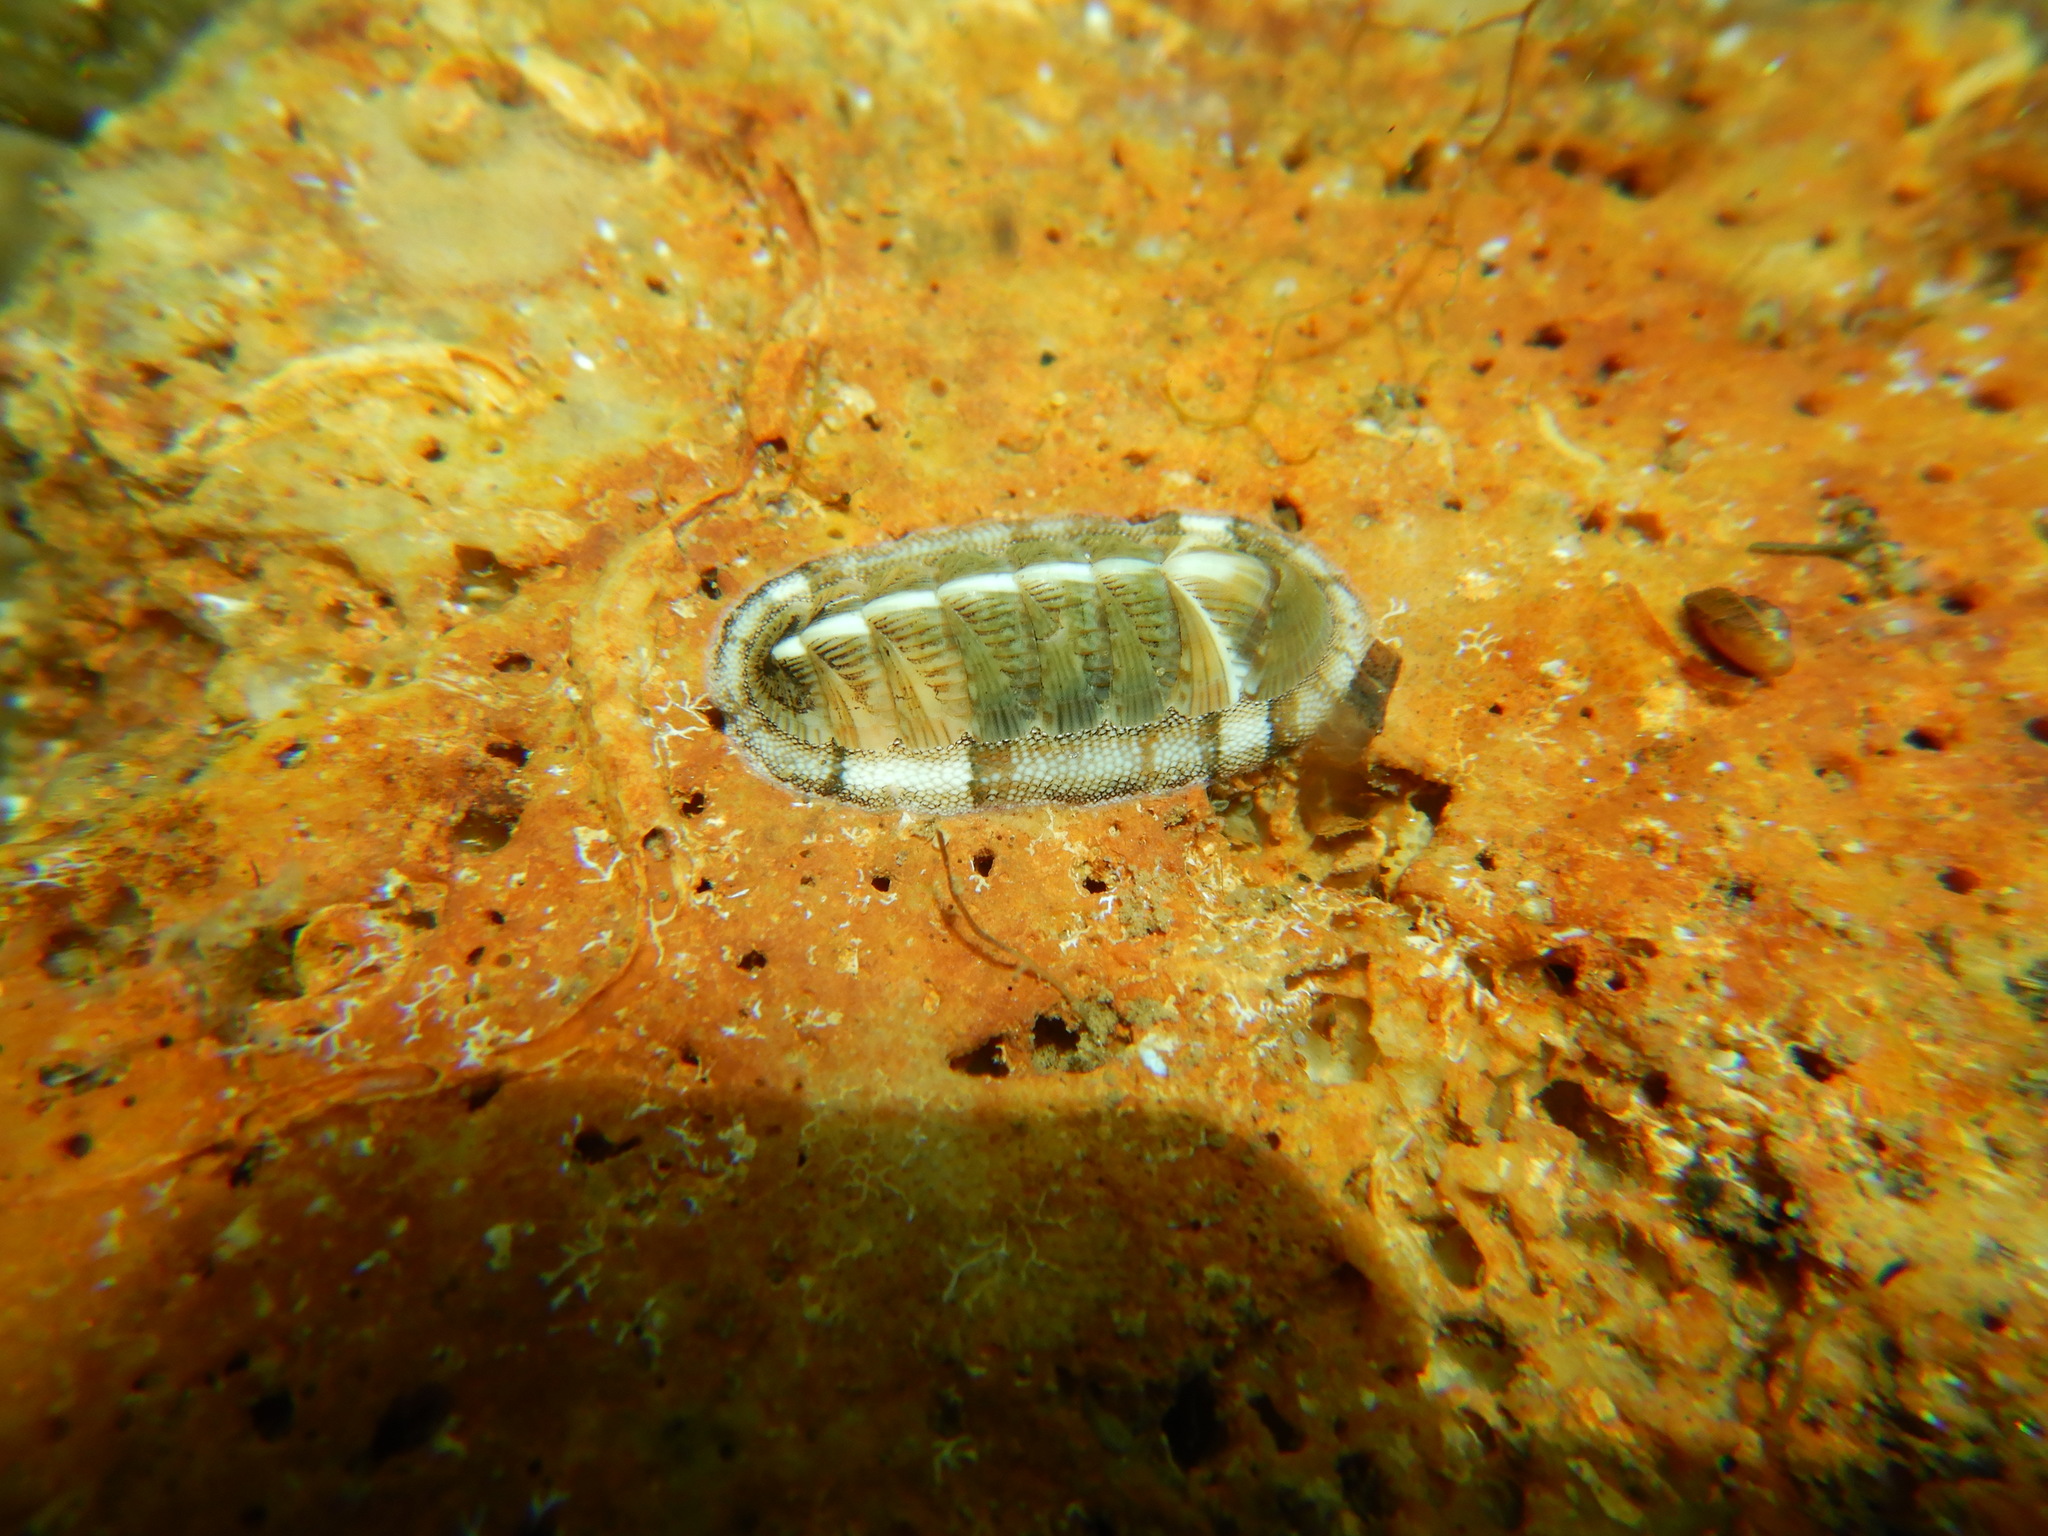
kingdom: Animalia
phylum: Mollusca
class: Polyplacophora
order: Chitonida
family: Chitonidae
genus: Rhyssoplax
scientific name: Rhyssoplax olivacea
